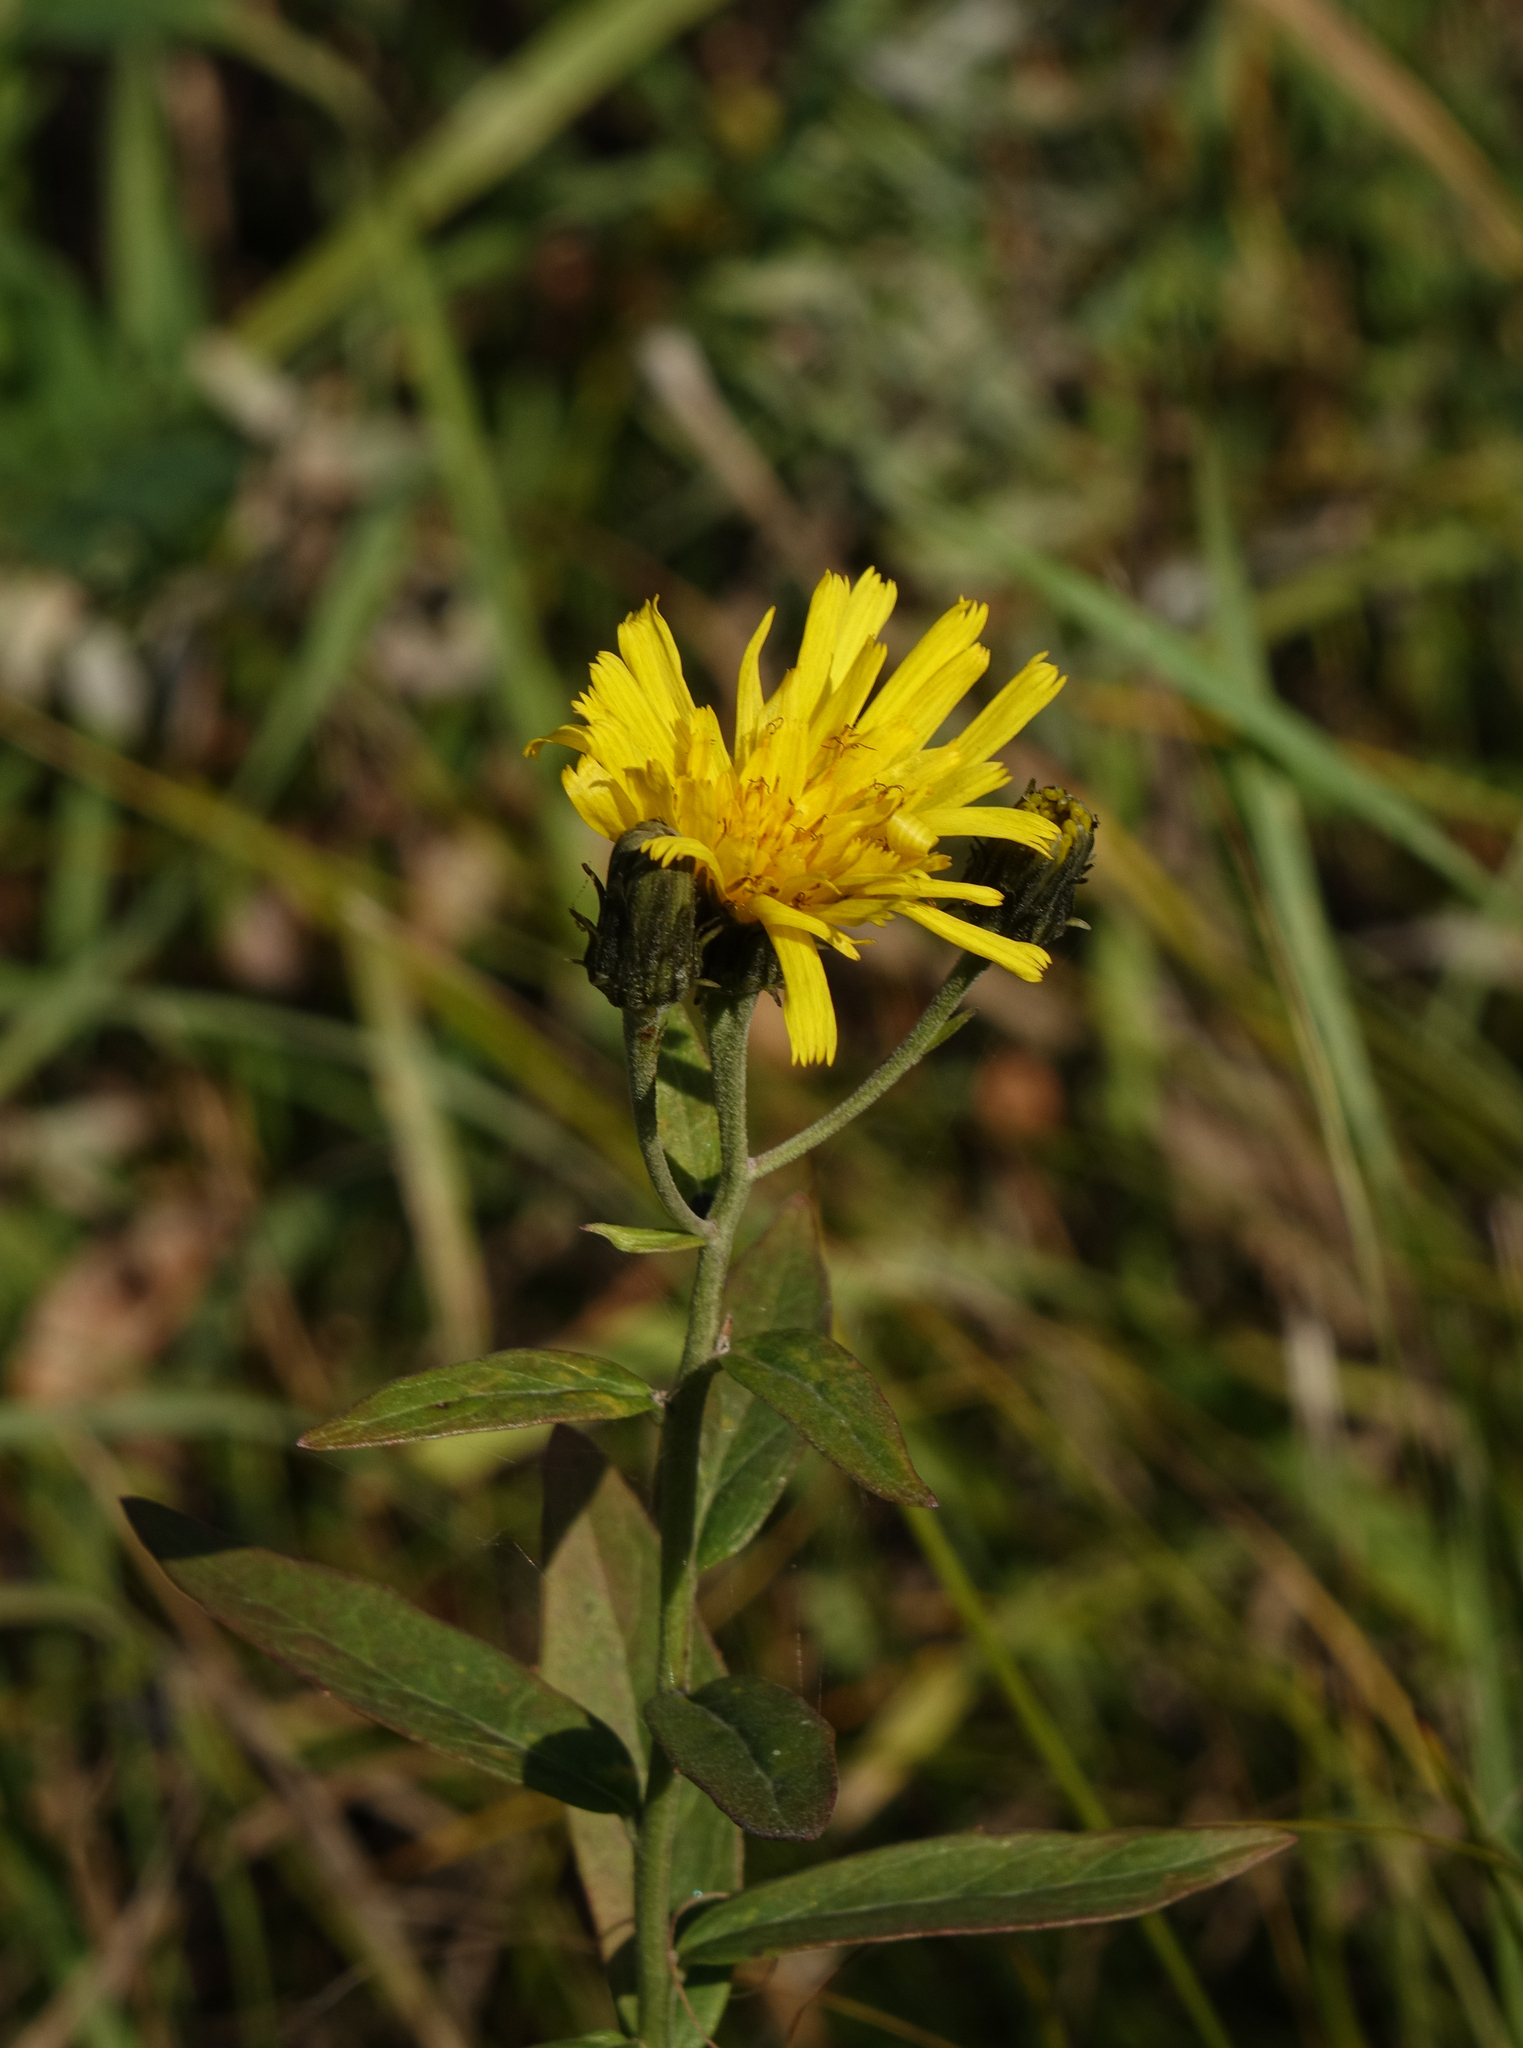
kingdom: Plantae
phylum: Tracheophyta
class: Magnoliopsida
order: Asterales
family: Asteraceae
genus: Hieracium
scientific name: Hieracium umbellatum
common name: Northern hawkweed
